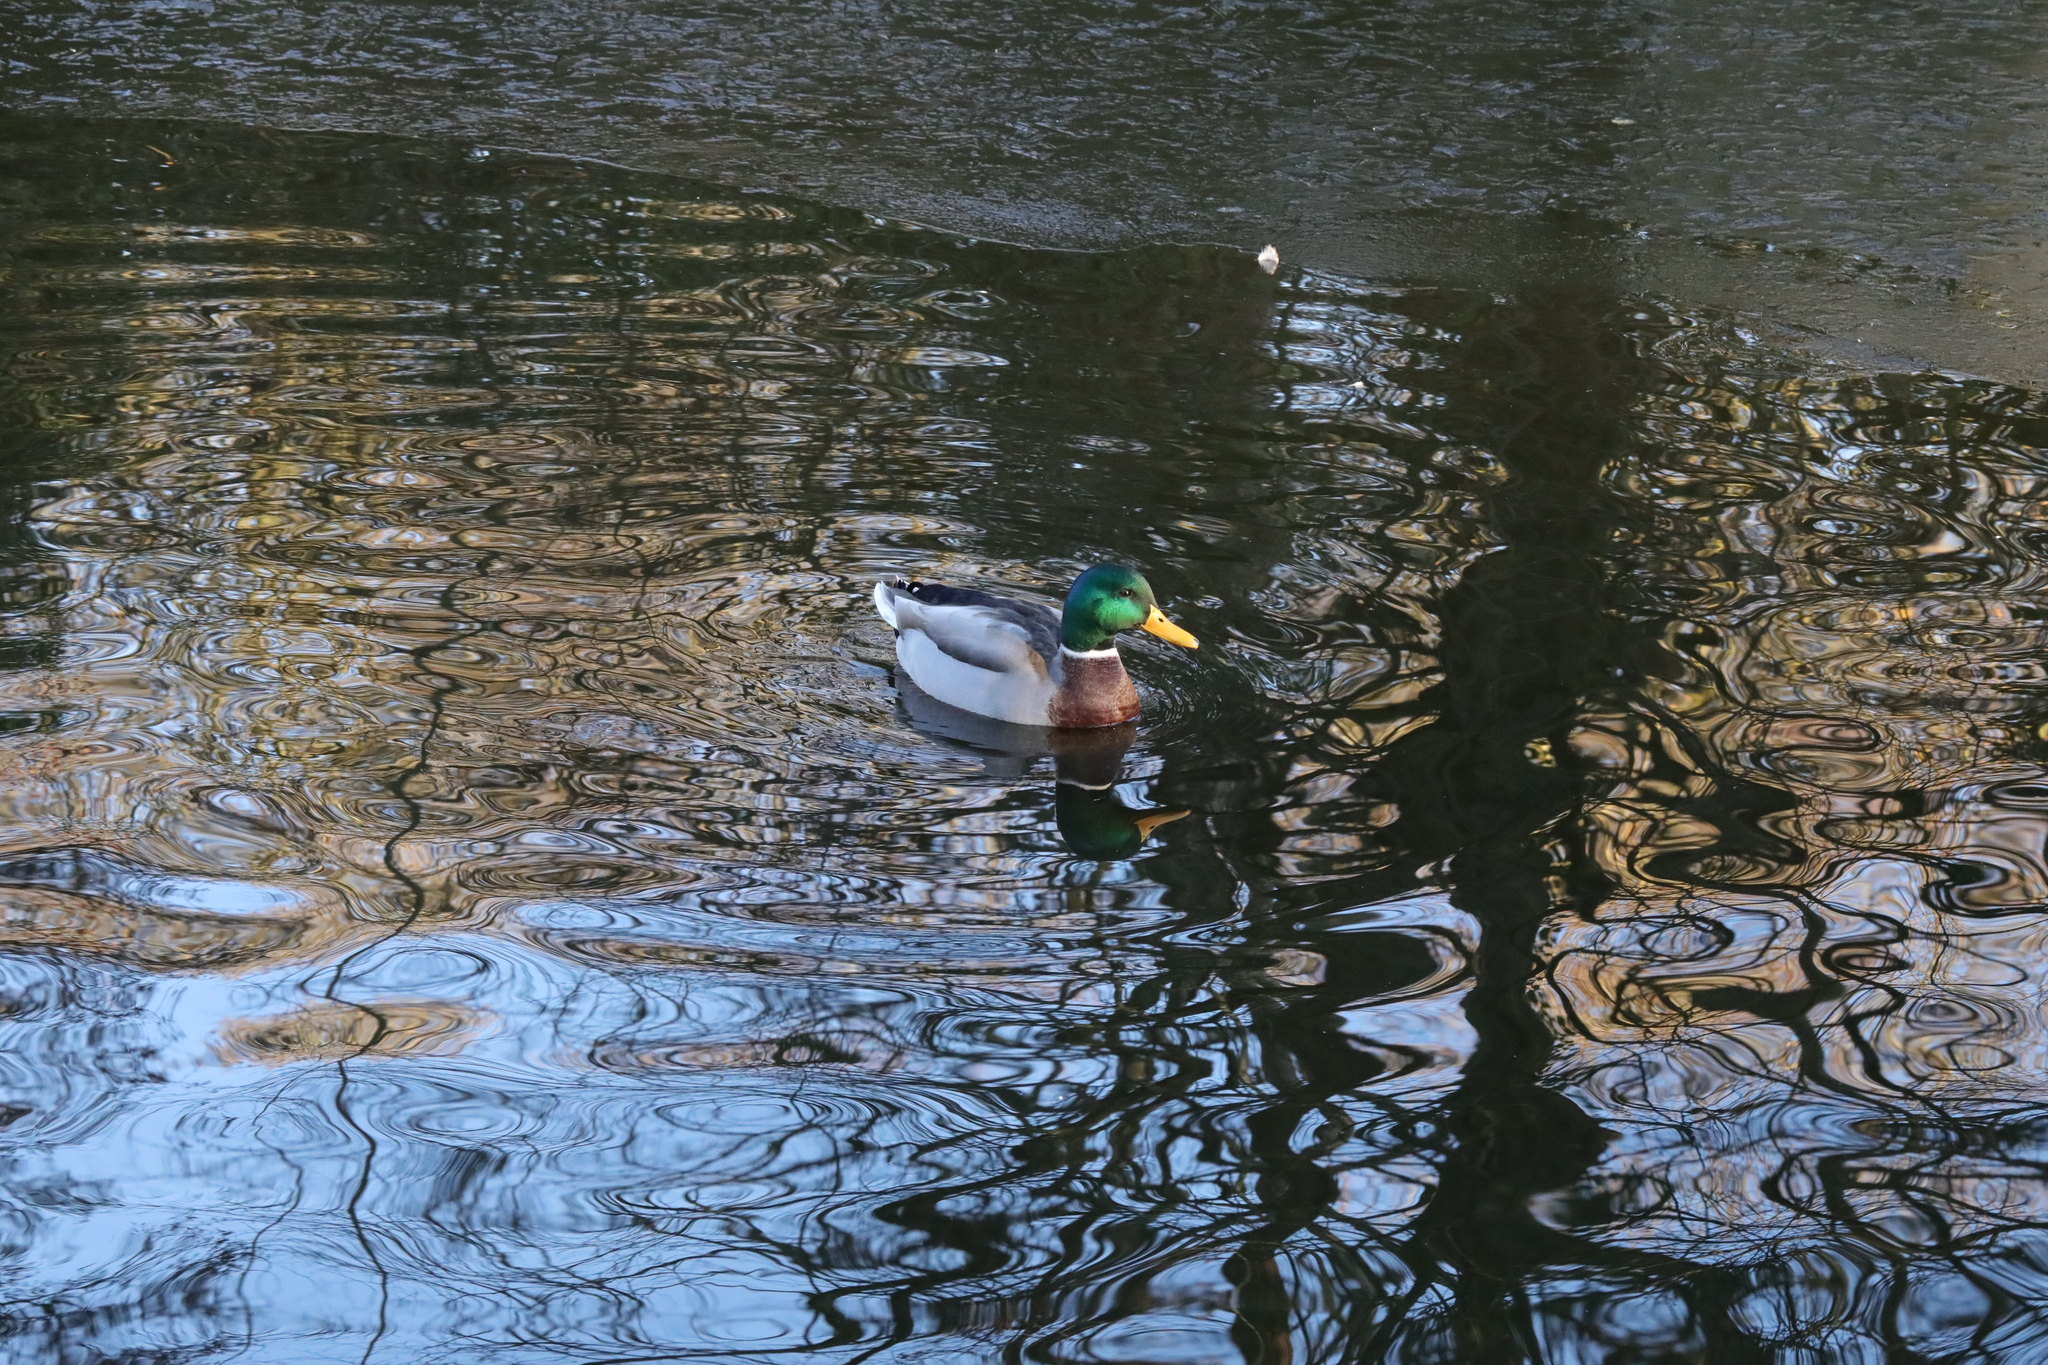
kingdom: Animalia
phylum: Chordata
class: Aves
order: Anseriformes
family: Anatidae
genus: Anas
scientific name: Anas platyrhynchos
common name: Mallard
